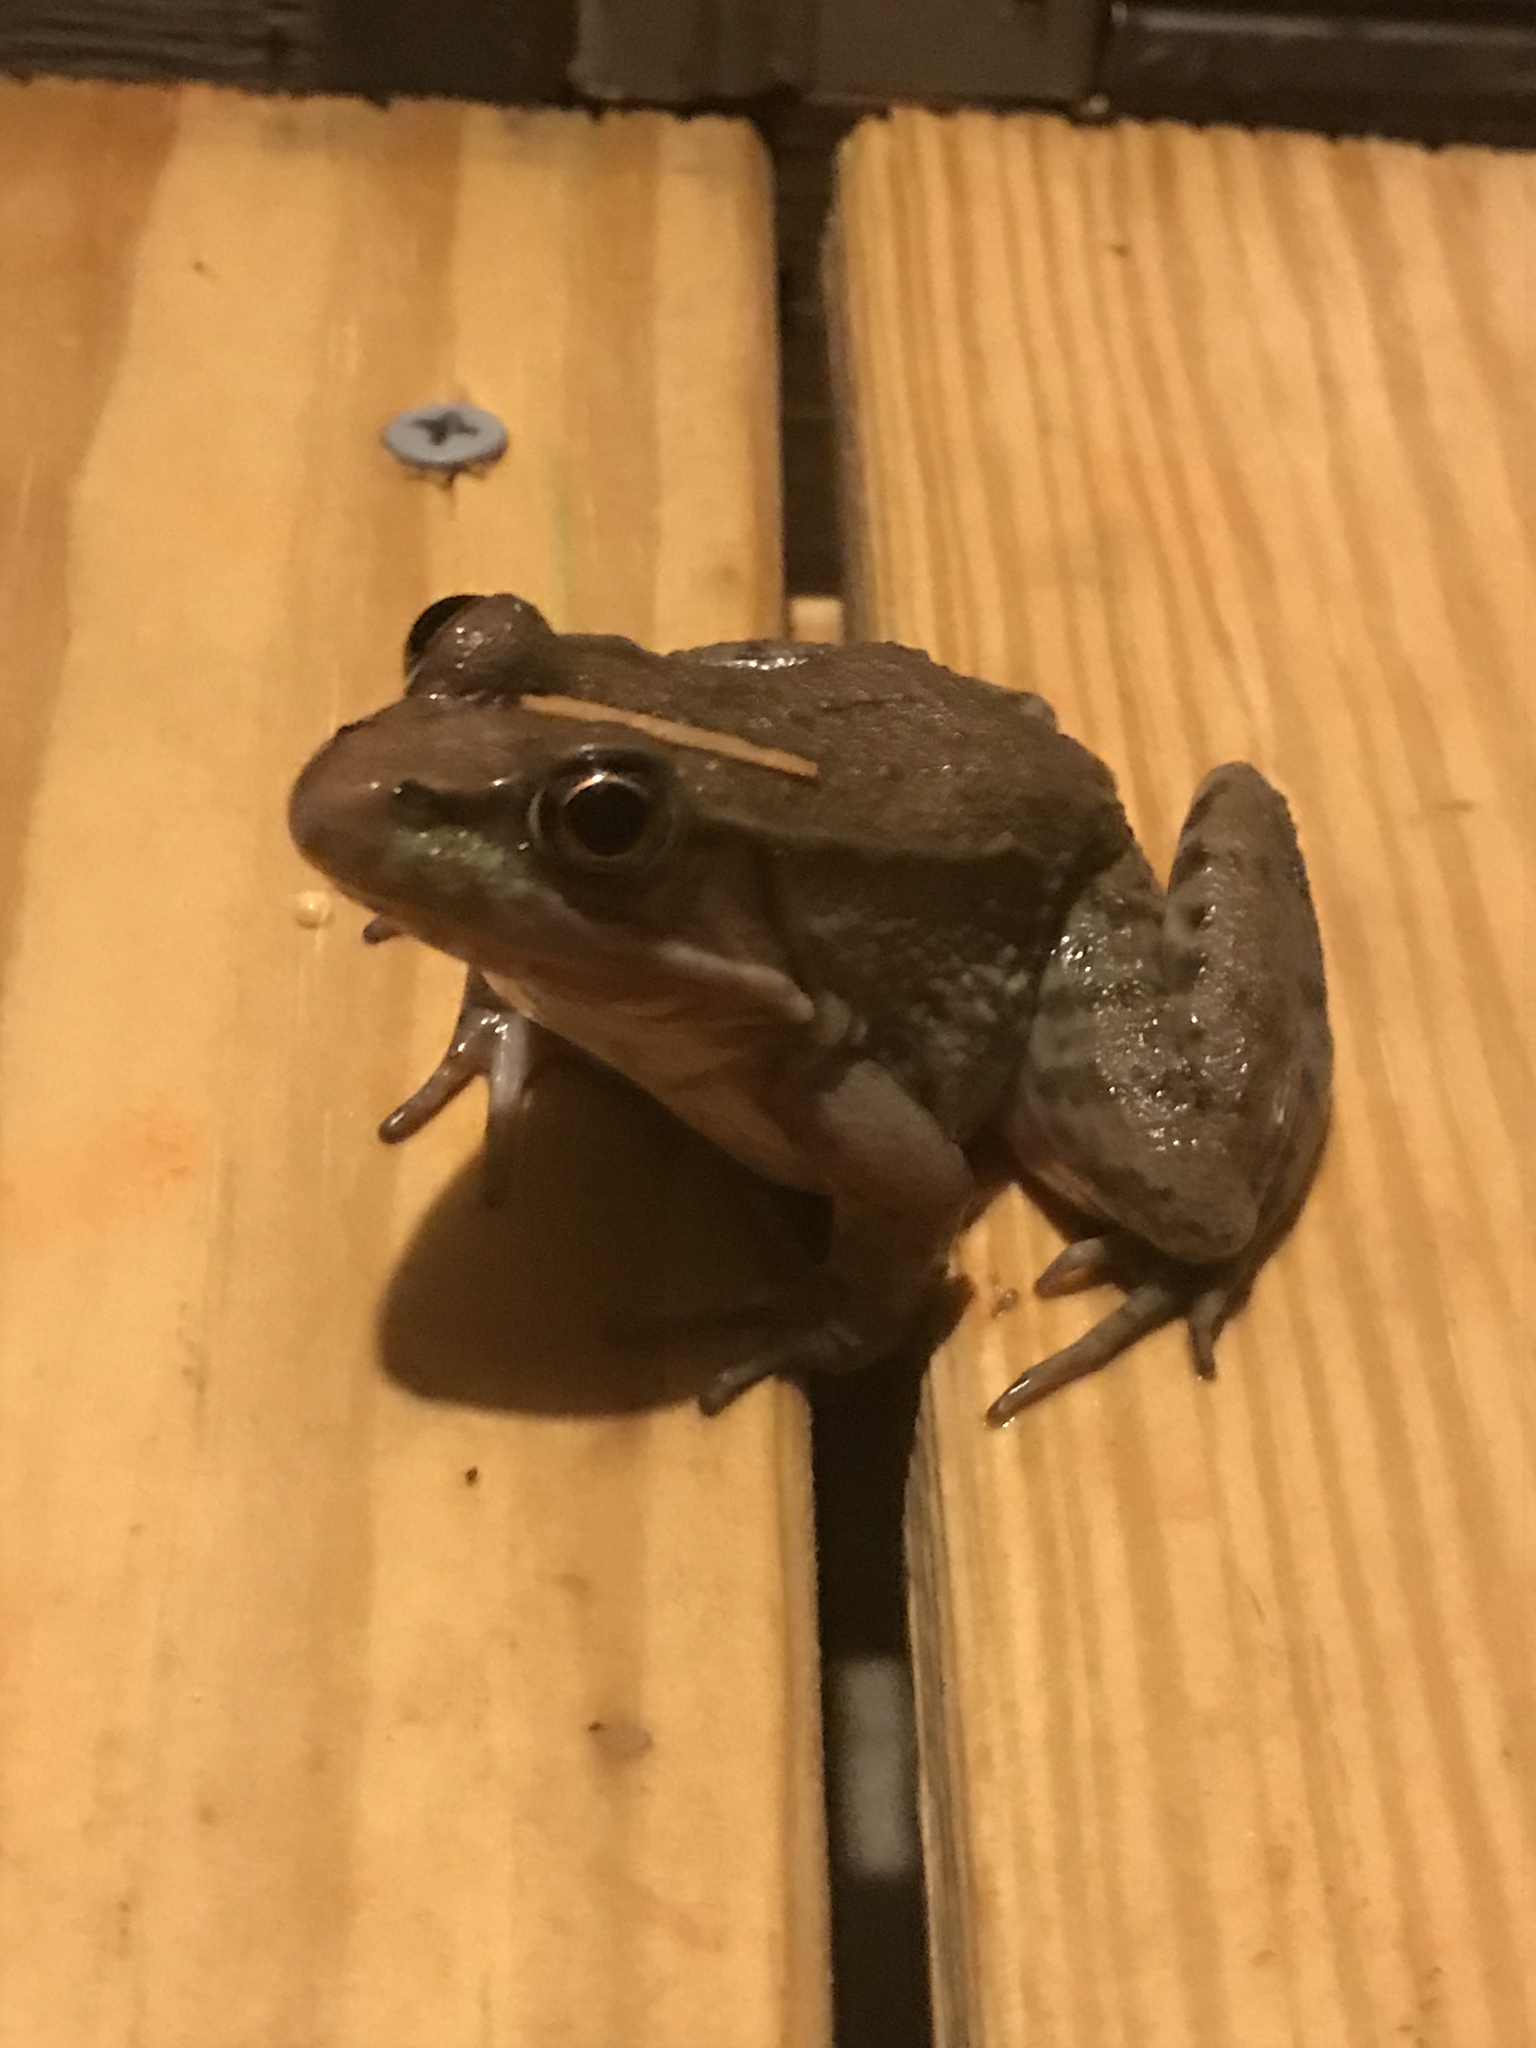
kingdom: Animalia
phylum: Chordata
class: Amphibia
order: Anura
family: Ranidae
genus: Lithobates
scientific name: Lithobates clamitans
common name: Green frog
